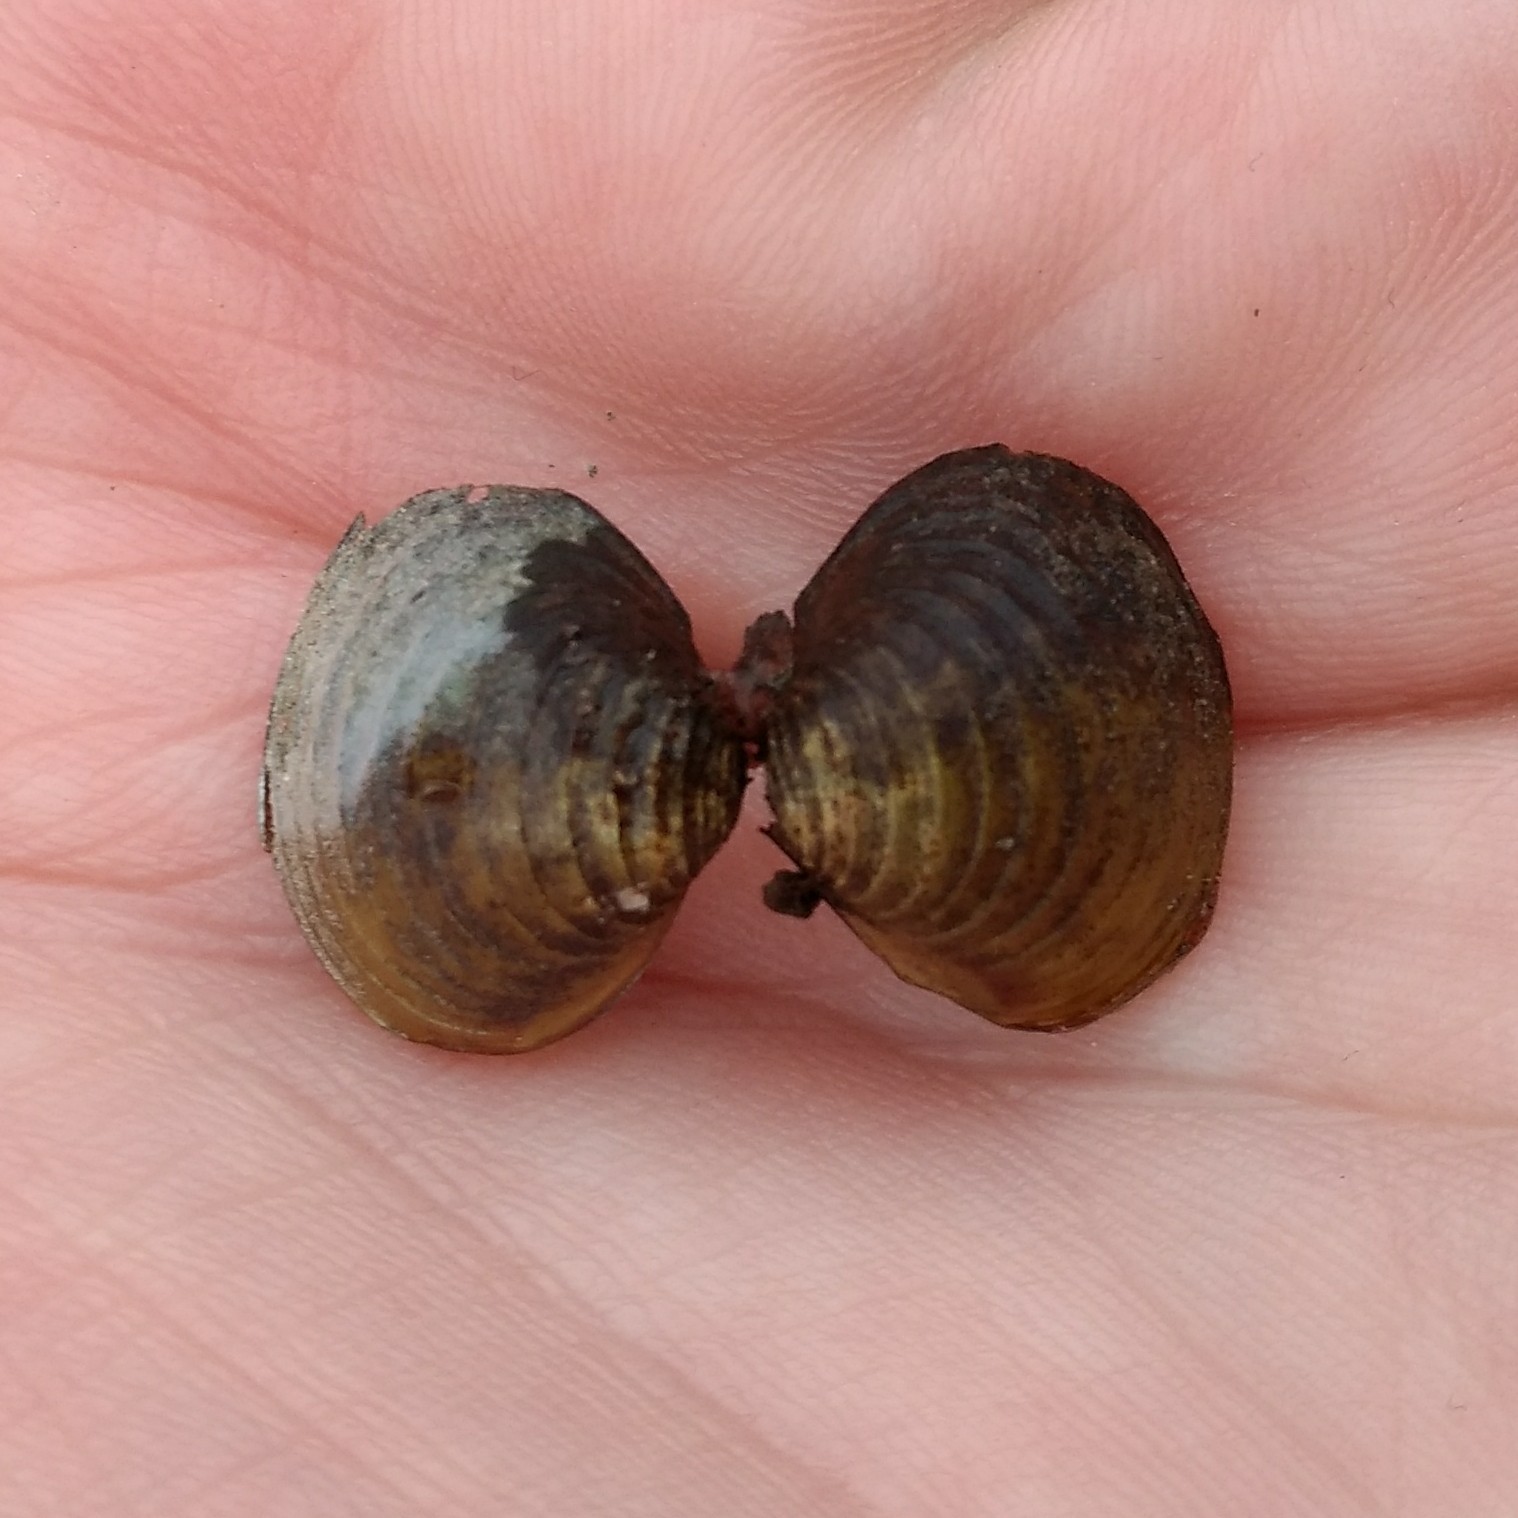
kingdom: Animalia
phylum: Mollusca
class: Bivalvia
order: Venerida
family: Cyrenidae
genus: Corbicula
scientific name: Corbicula fluminea
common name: Asian clam
